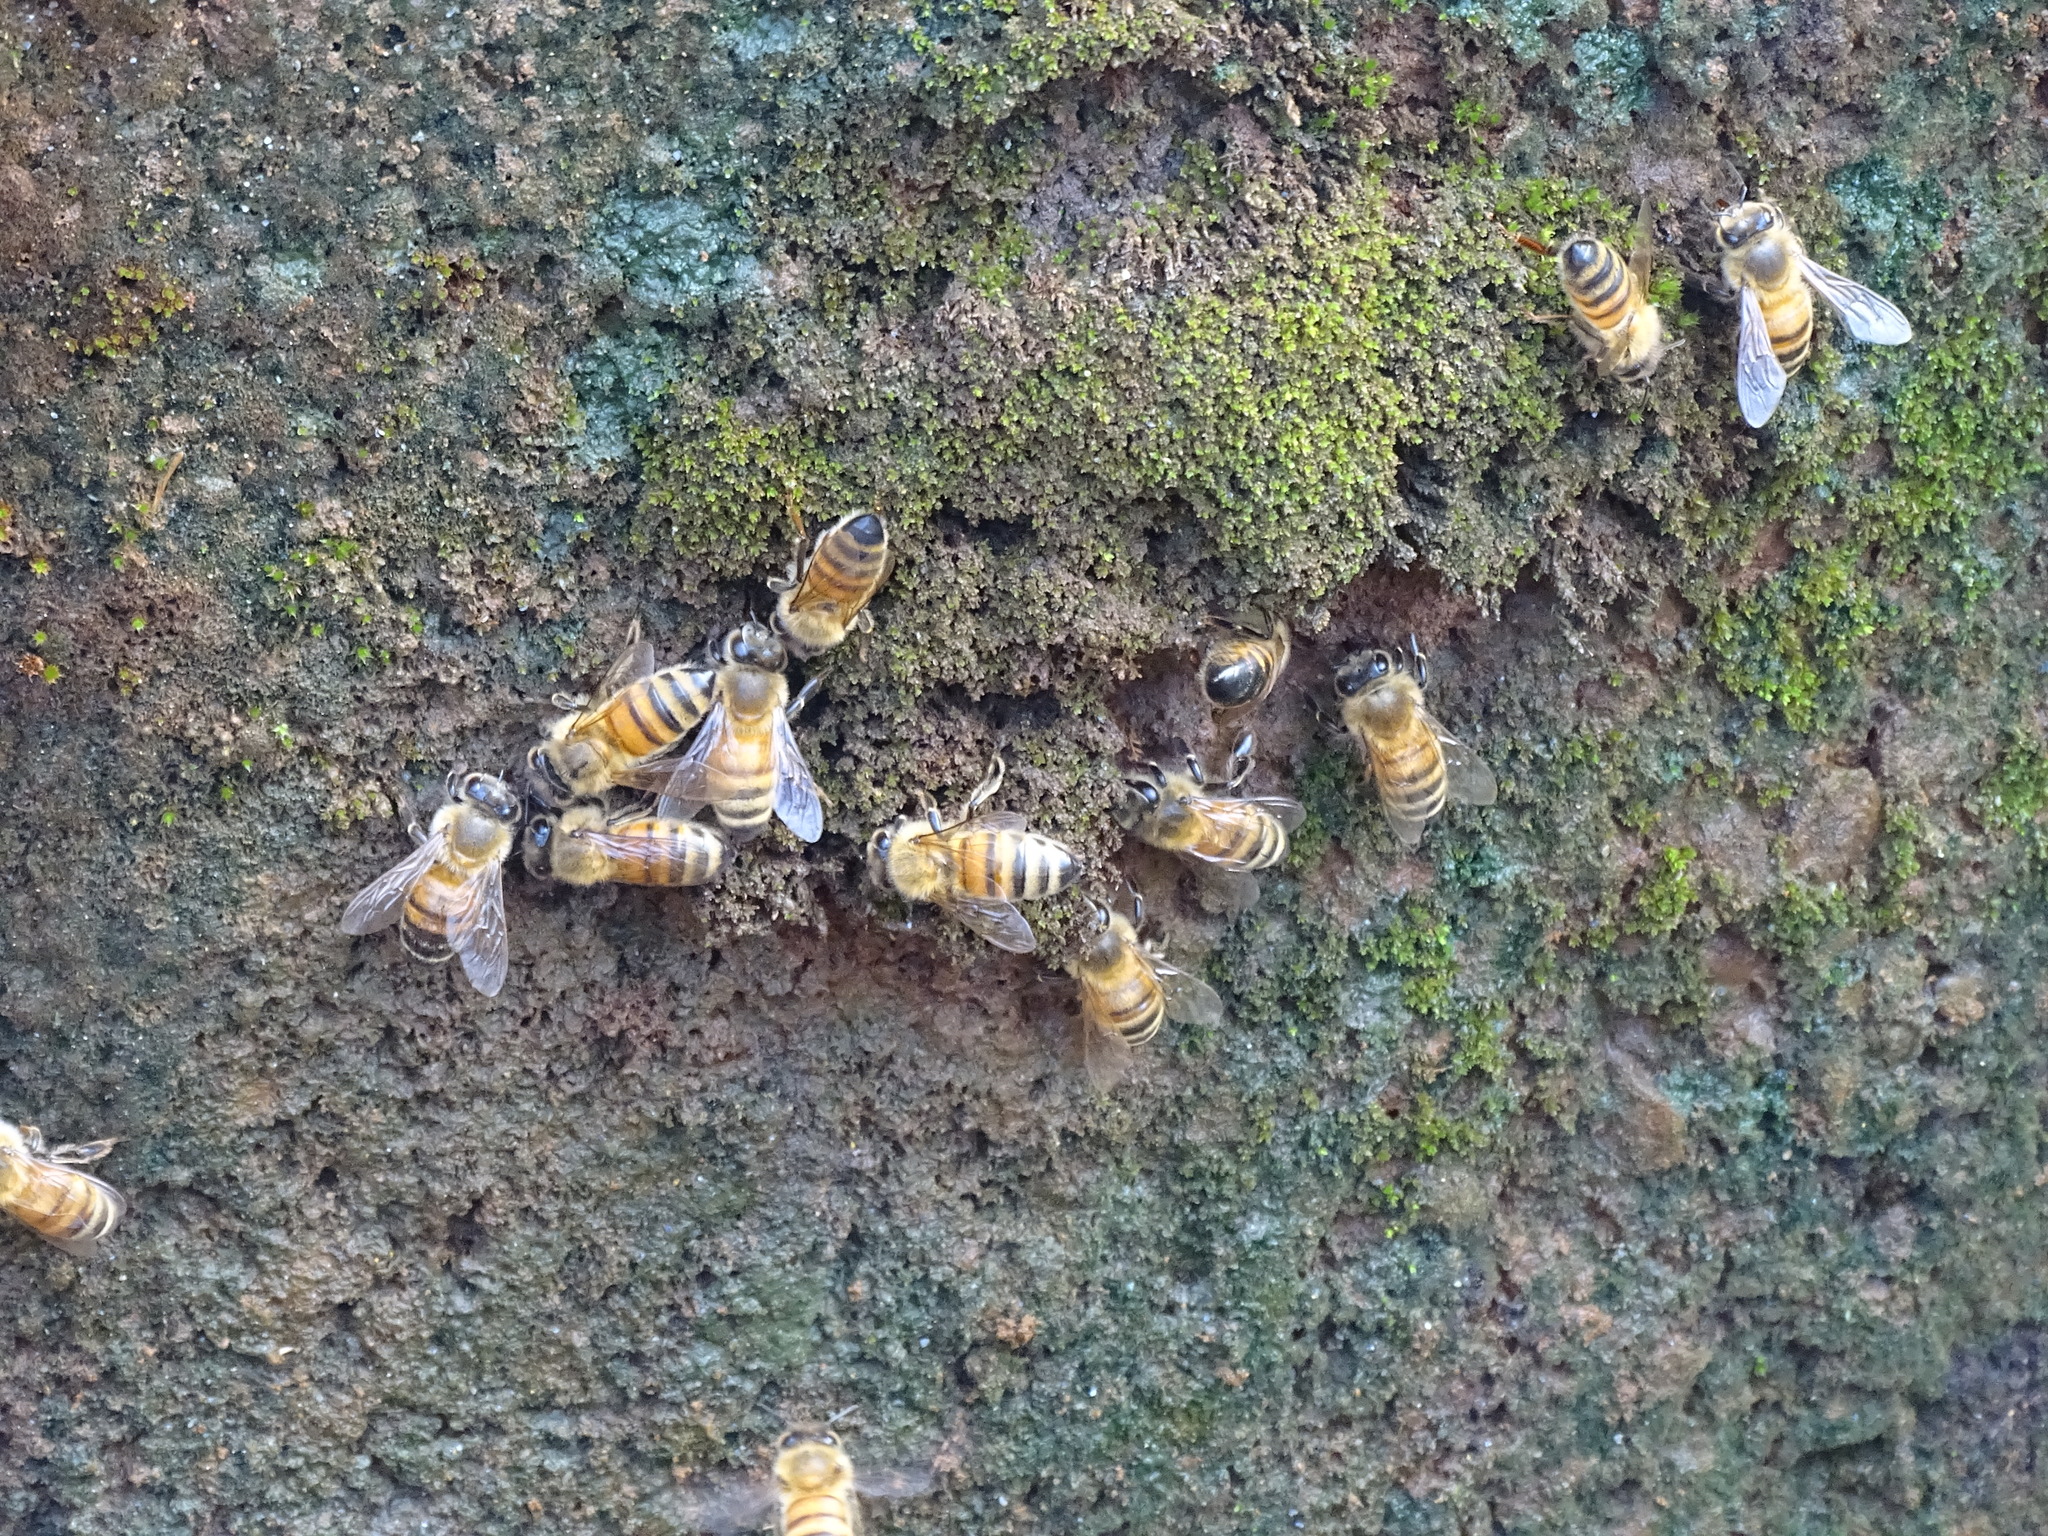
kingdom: Animalia
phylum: Arthropoda
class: Insecta
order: Hymenoptera
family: Apidae
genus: Apis
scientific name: Apis mellifera
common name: Honey bee
